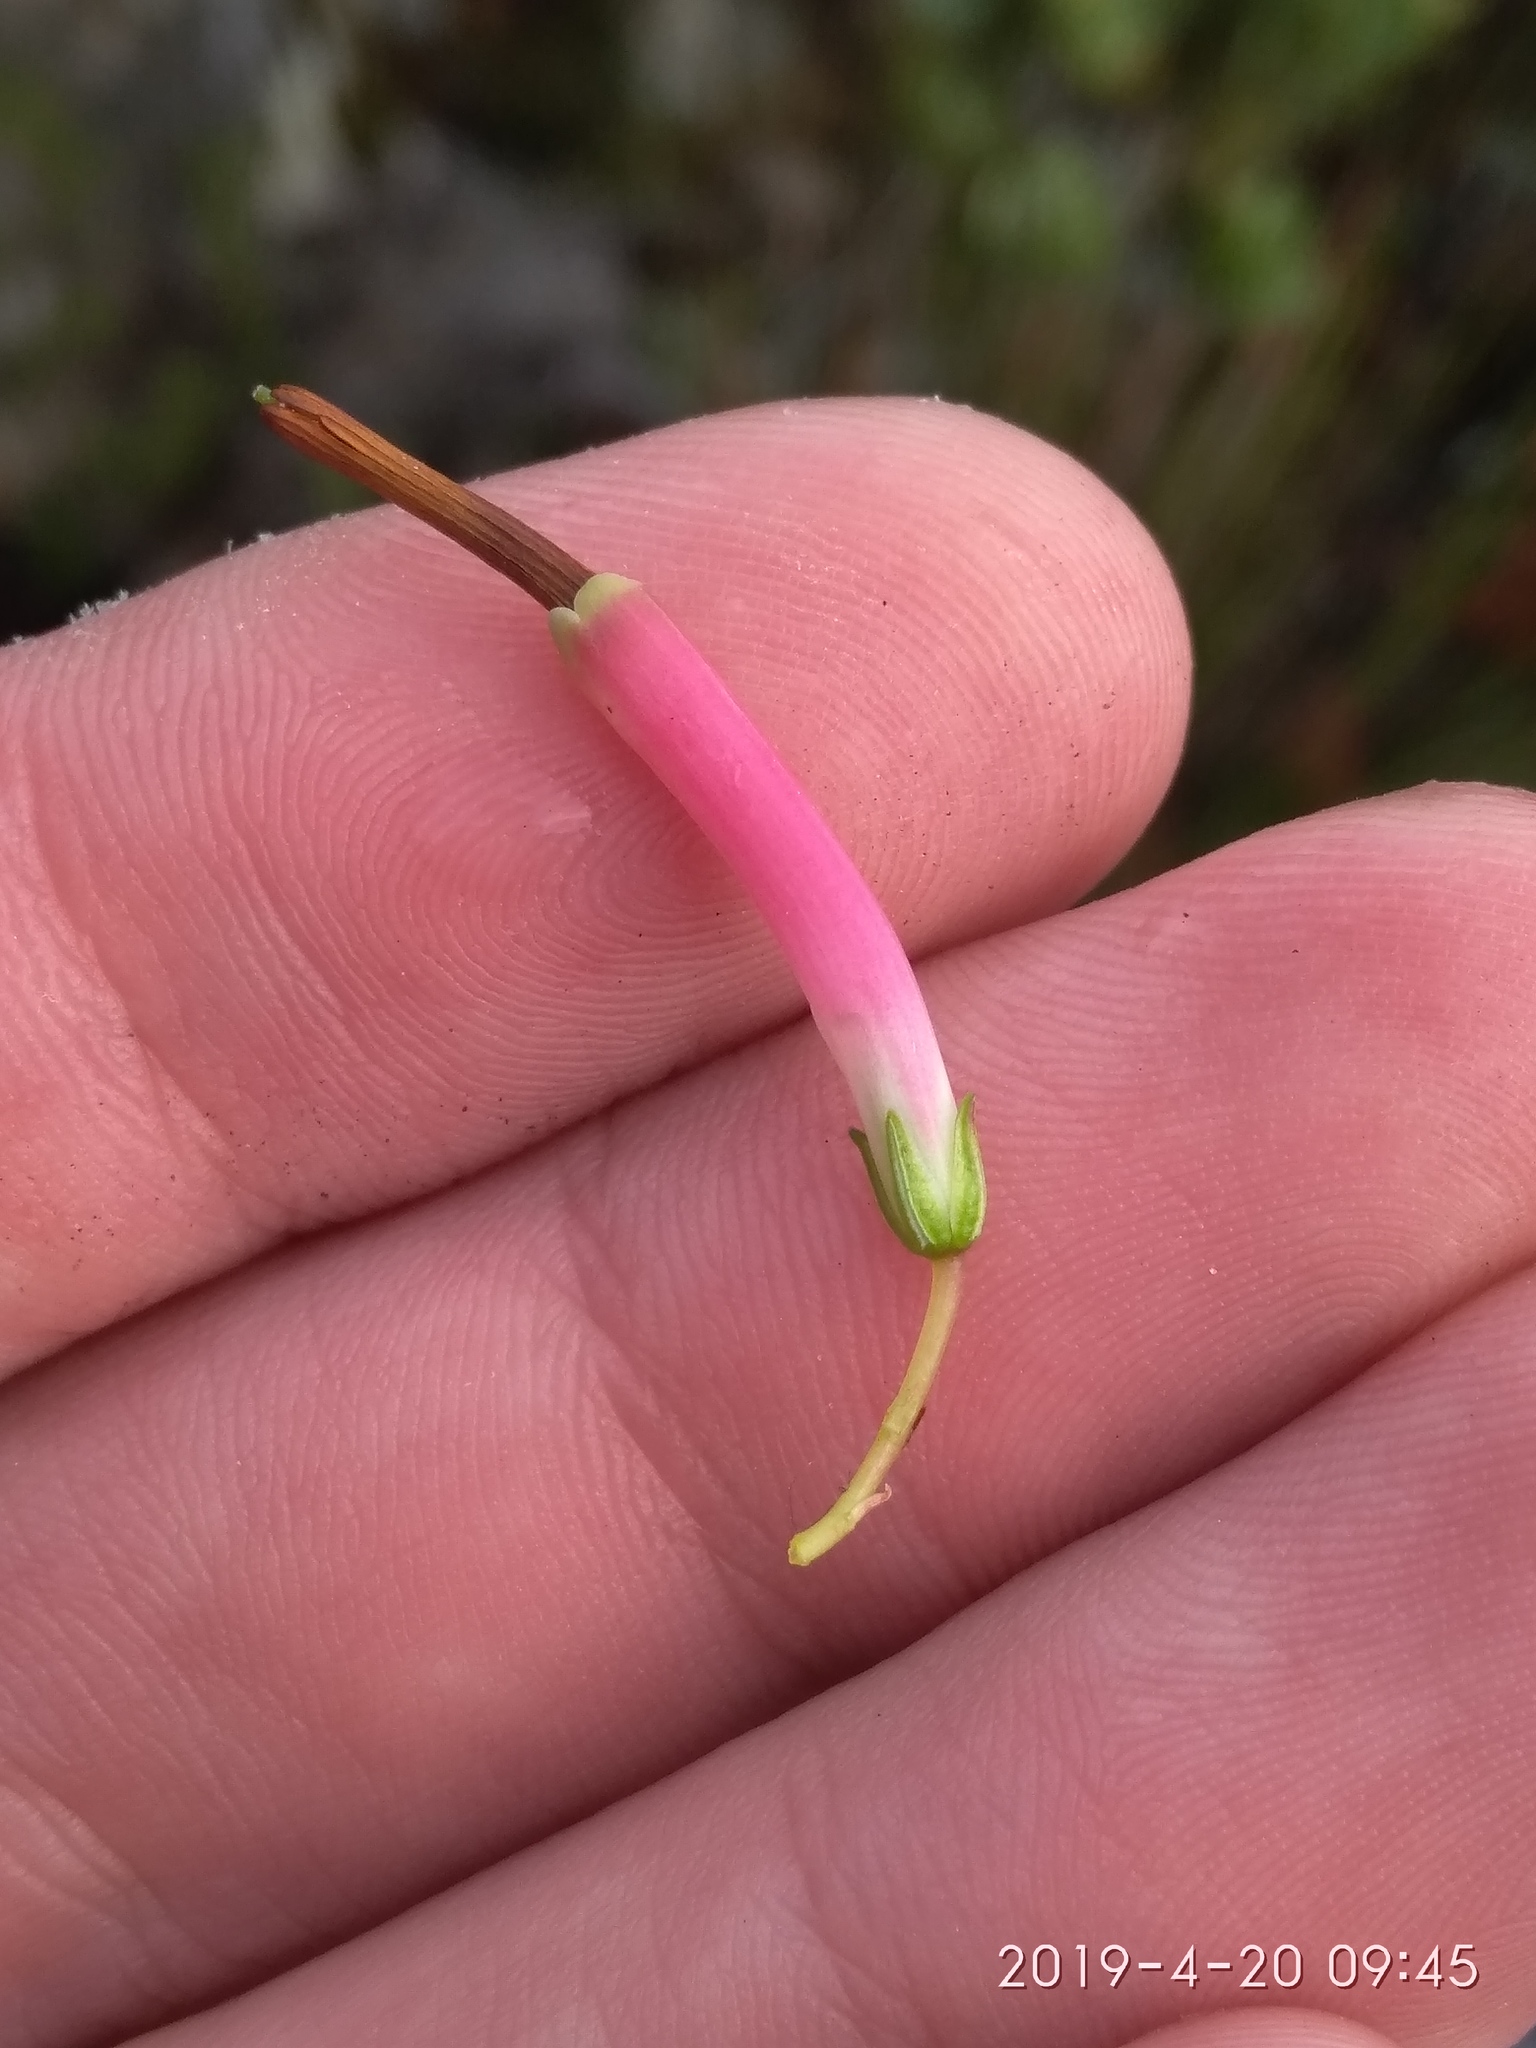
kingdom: Plantae
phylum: Tracheophyta
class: Magnoliopsida
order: Ericales
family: Ericaceae
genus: Erica
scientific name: Erica plukenetii
